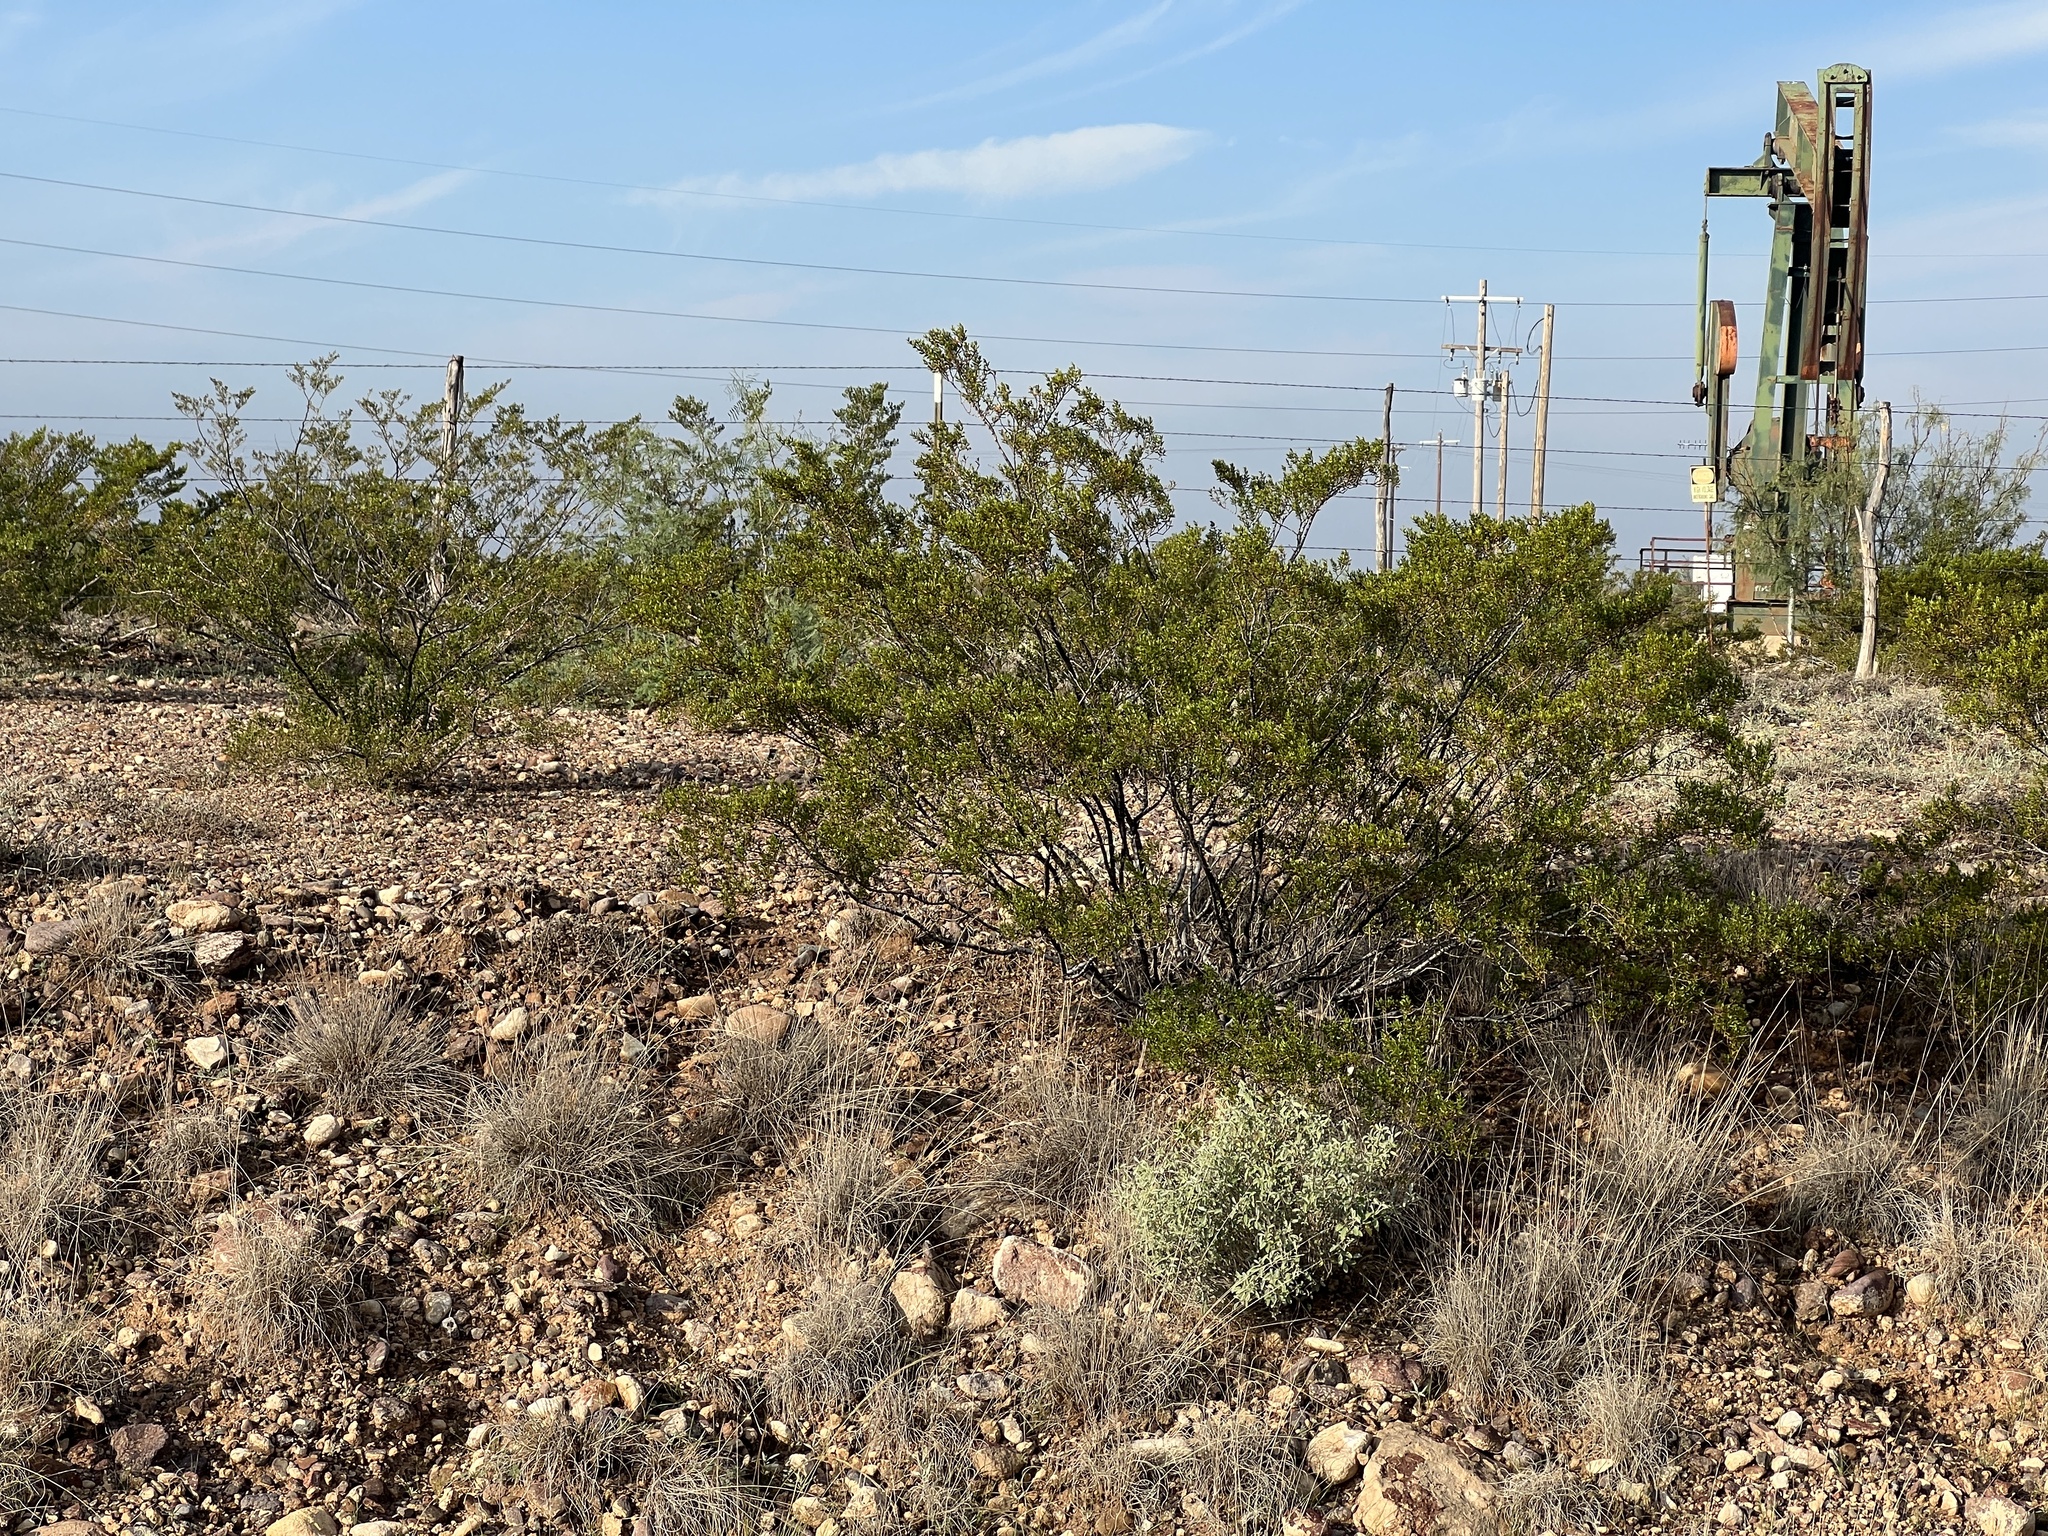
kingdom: Plantae
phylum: Tracheophyta
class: Magnoliopsida
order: Zygophyllales
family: Zygophyllaceae
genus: Larrea
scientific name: Larrea tridentata
